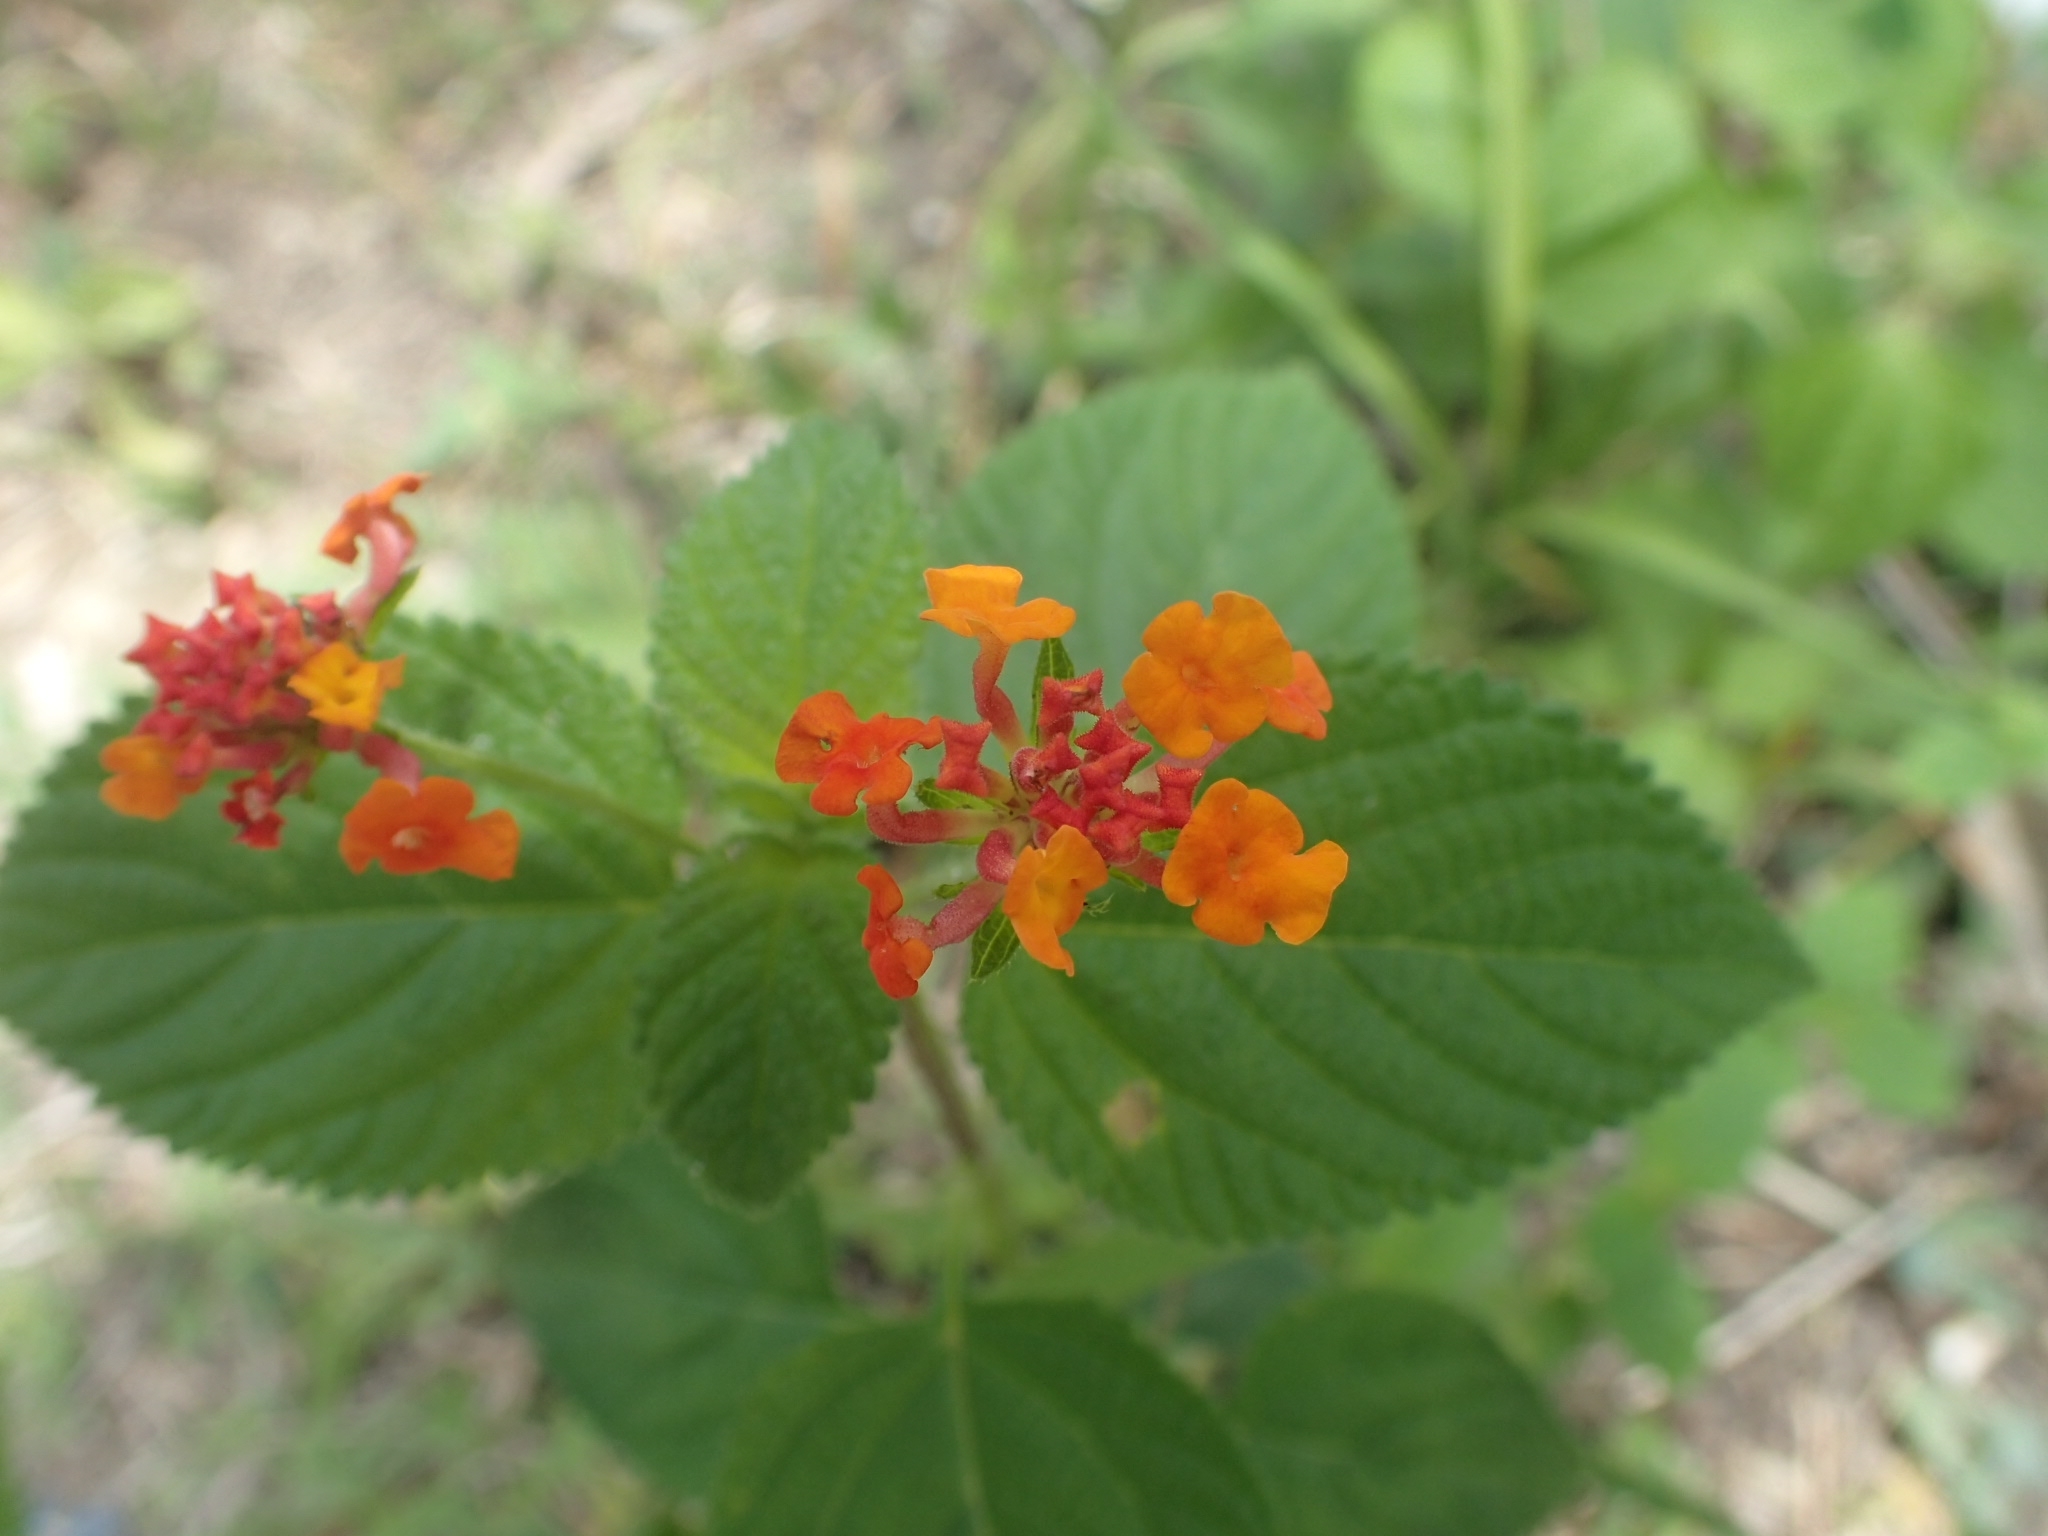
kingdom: Plantae
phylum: Tracheophyta
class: Magnoliopsida
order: Lamiales
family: Verbenaceae
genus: Lantana
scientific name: Lantana camara
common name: Lantana
